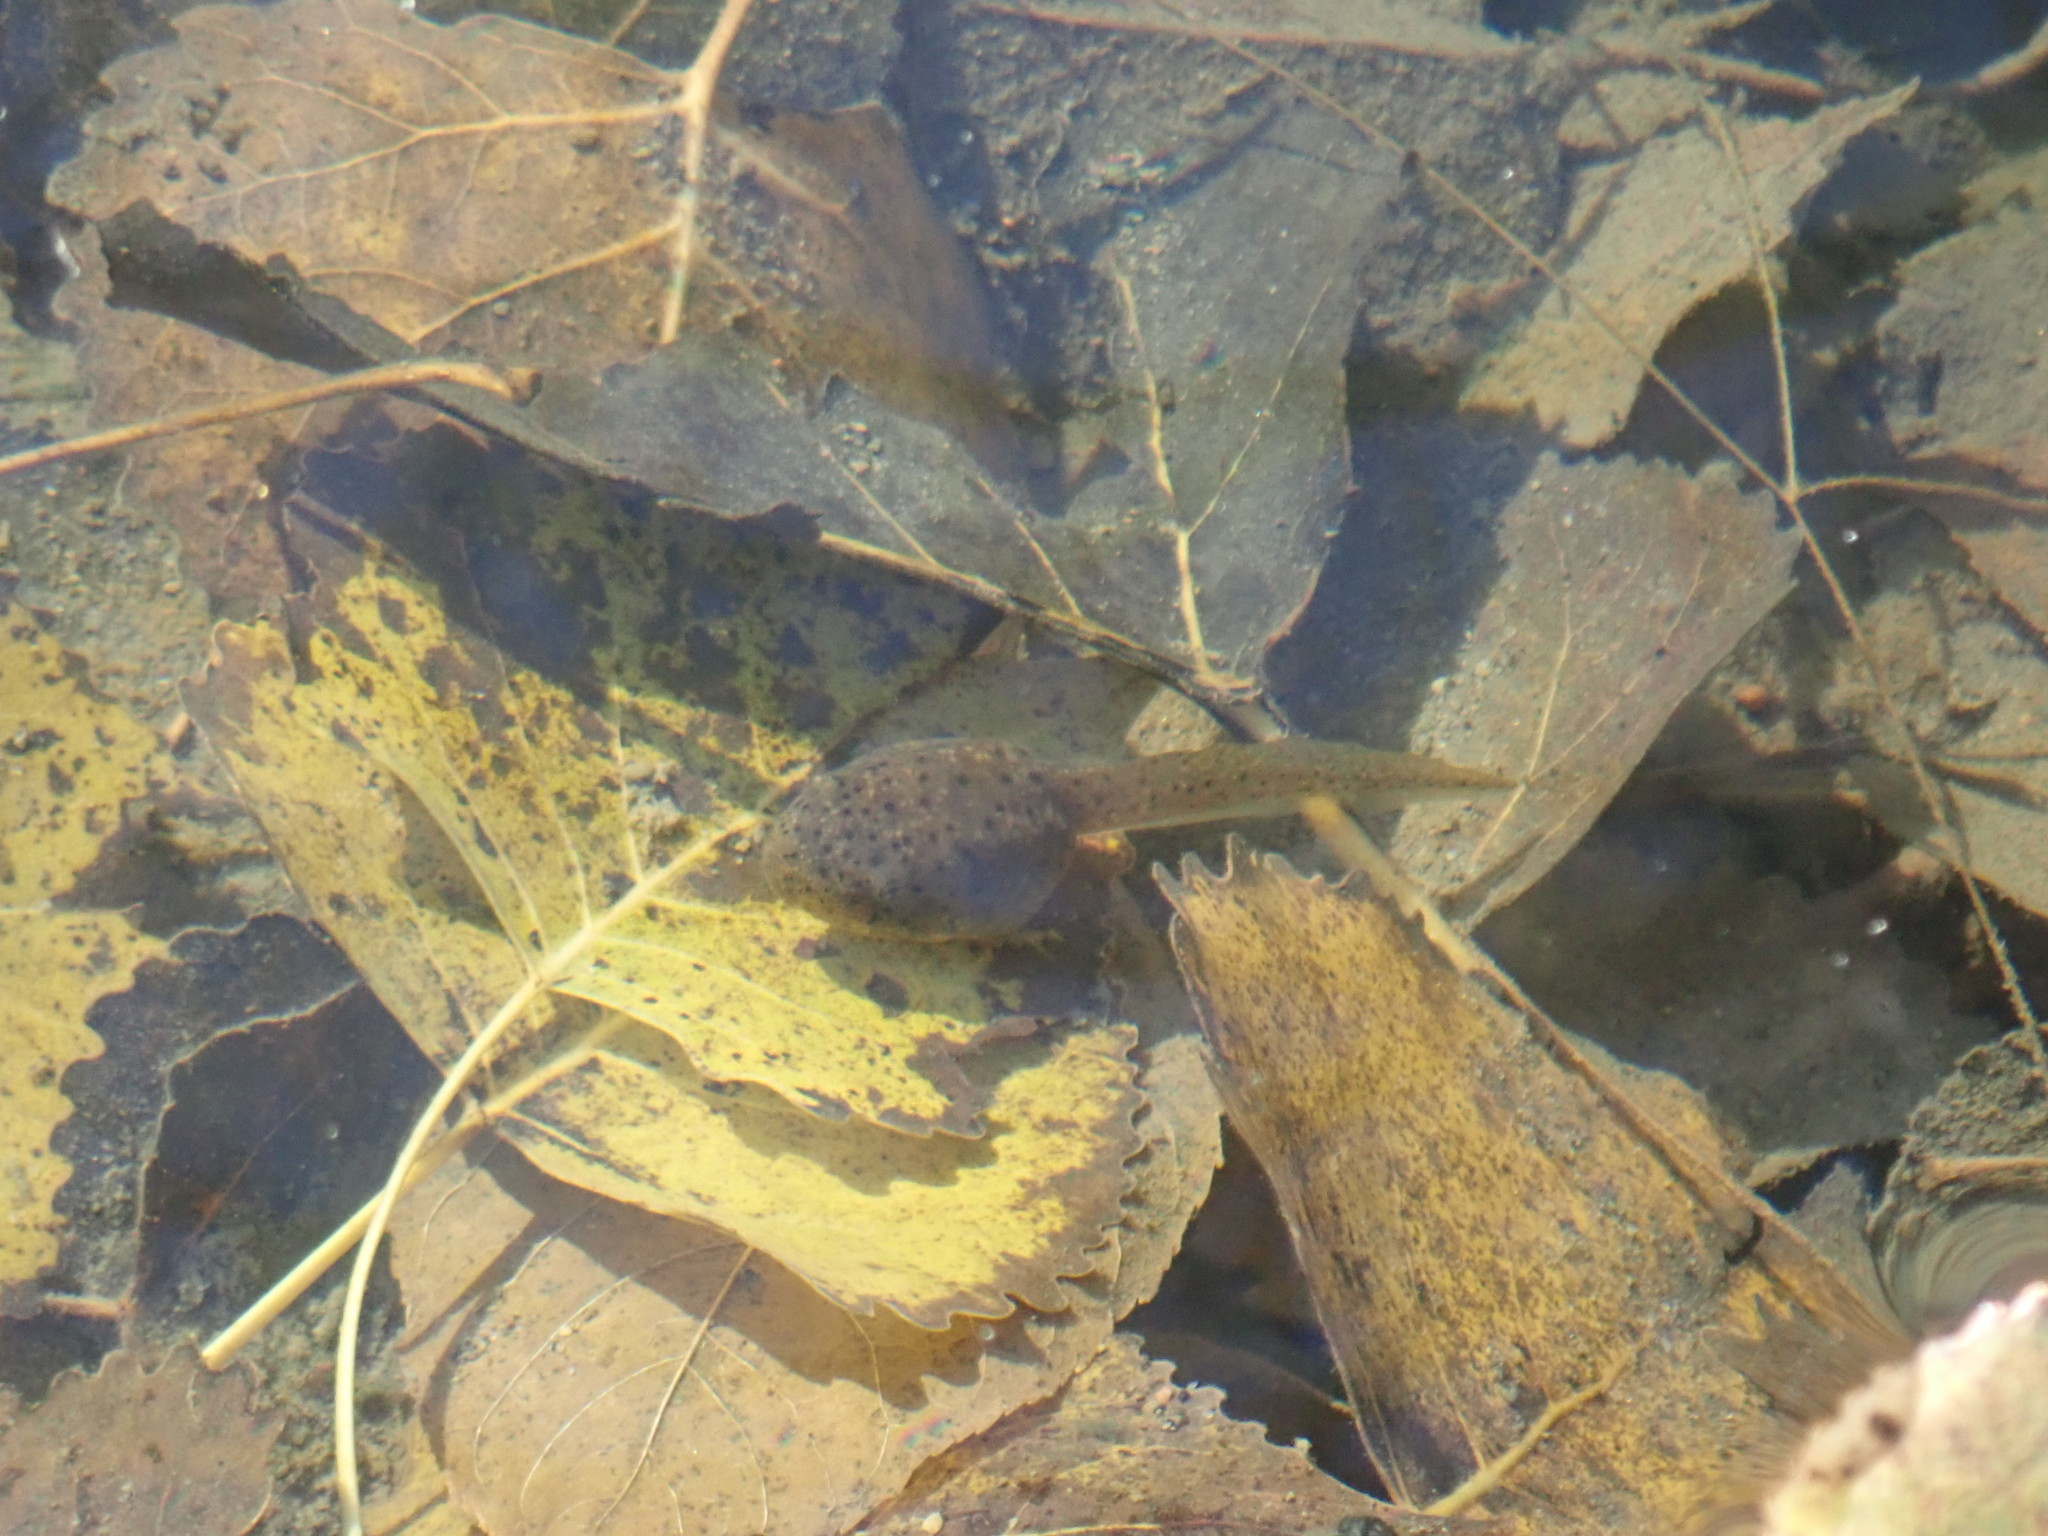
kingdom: Animalia
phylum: Chordata
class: Amphibia
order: Anura
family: Ranidae
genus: Lithobates
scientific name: Lithobates catesbeianus
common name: American bullfrog
